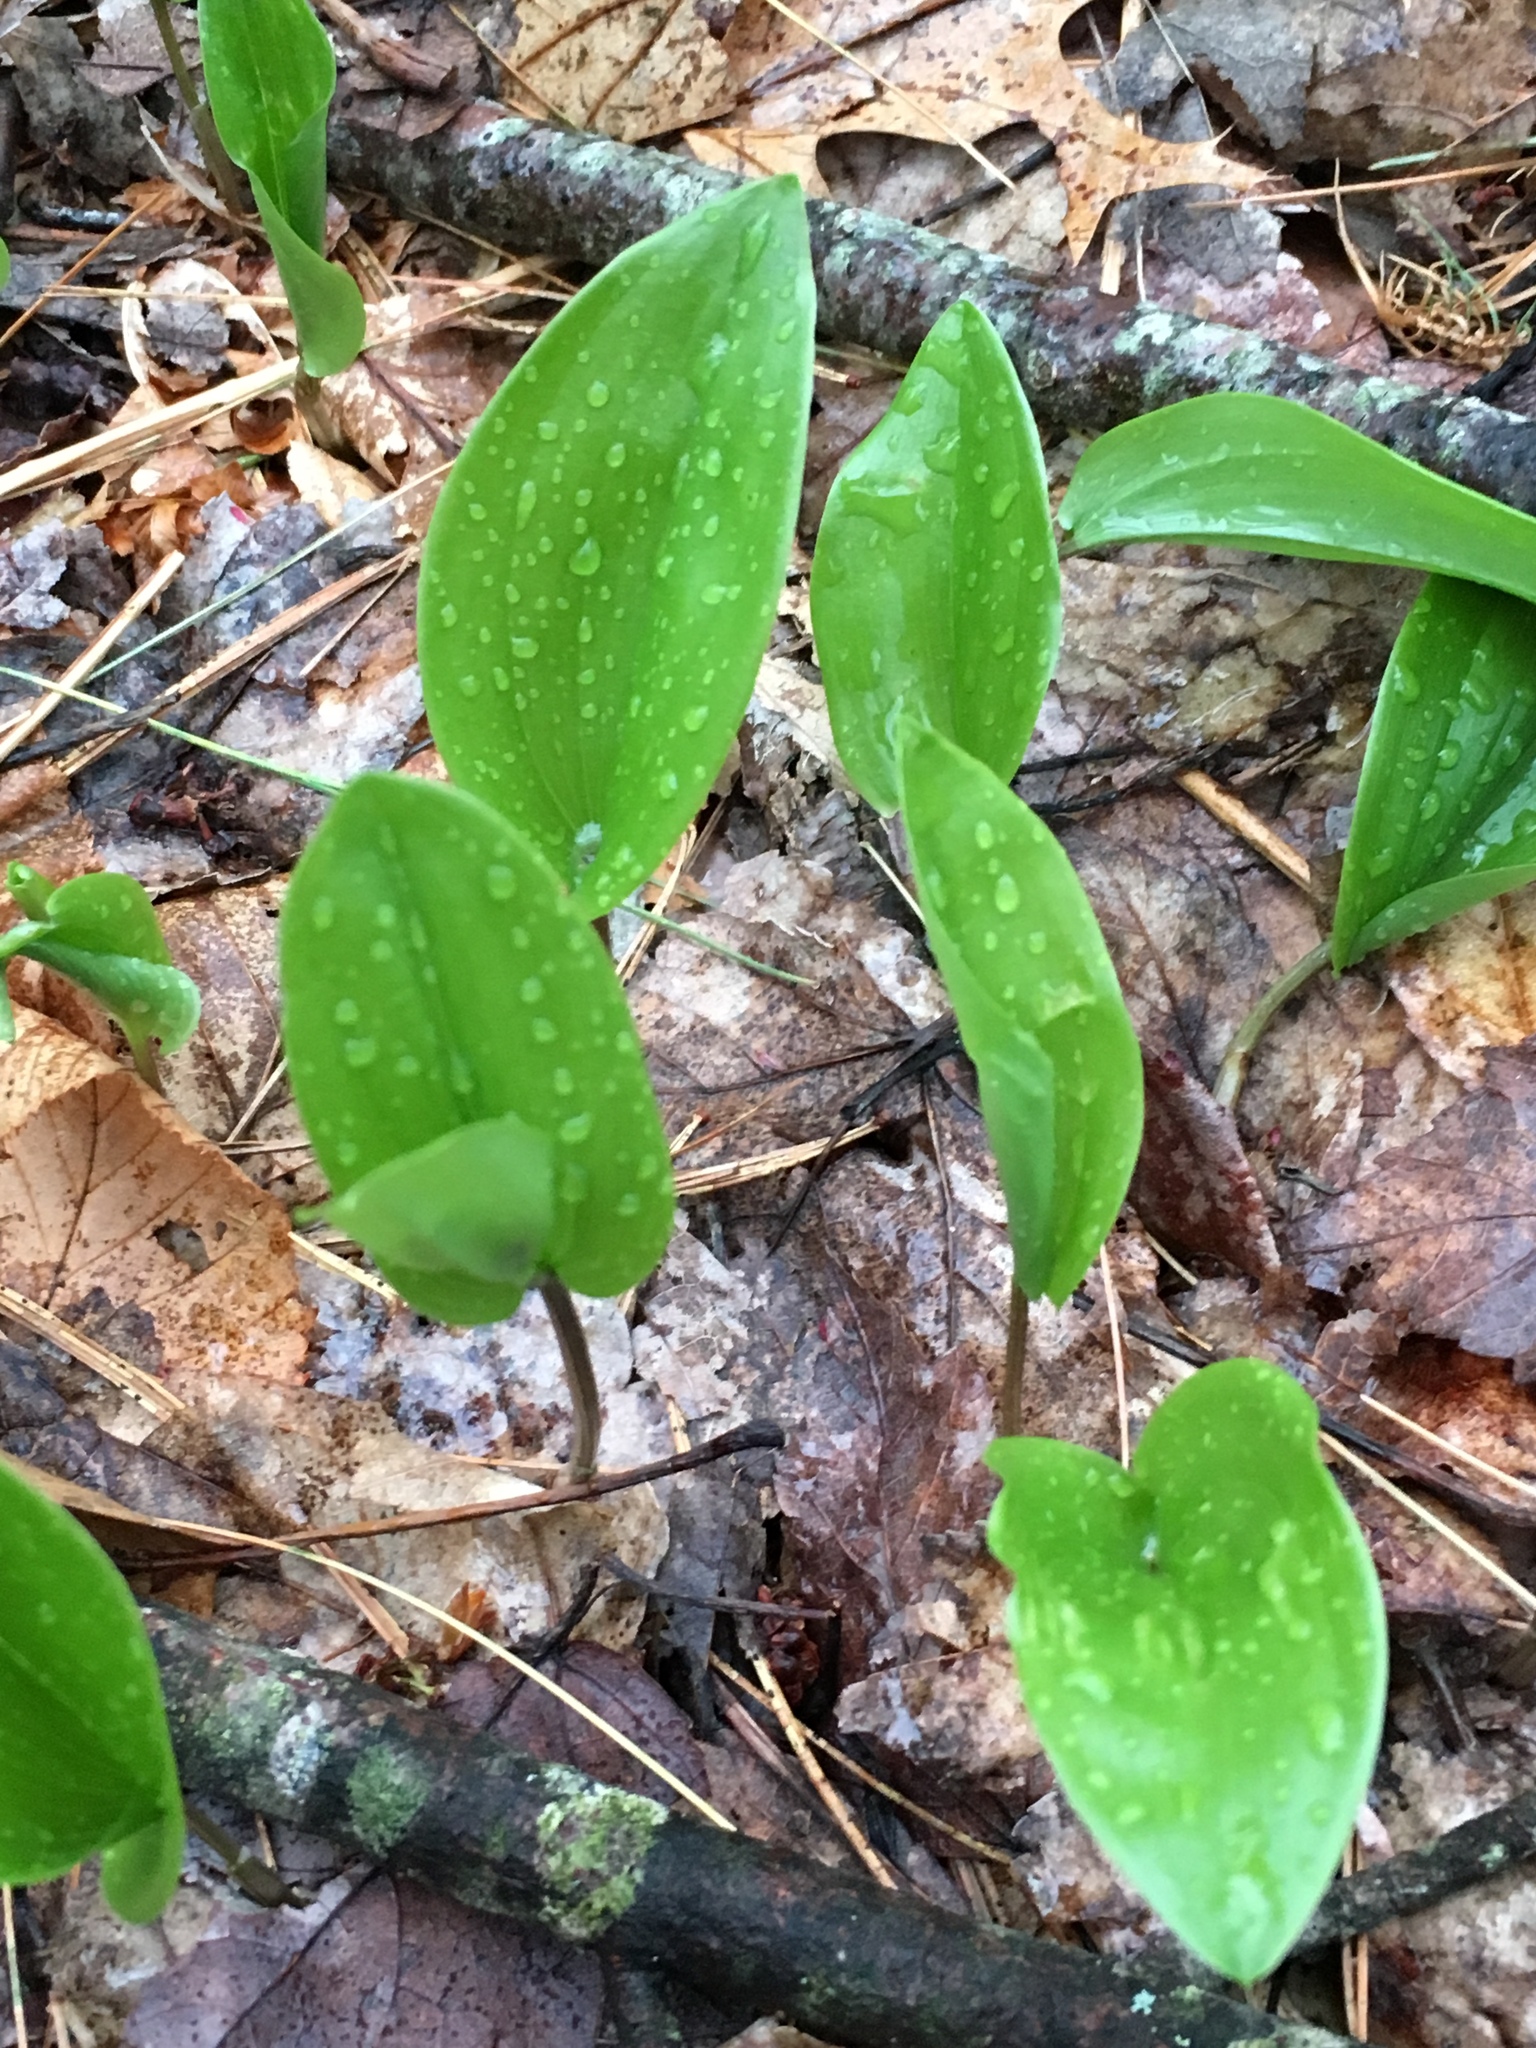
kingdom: Plantae
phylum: Tracheophyta
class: Liliopsida
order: Asparagales
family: Asparagaceae
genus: Maianthemum
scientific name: Maianthemum canadense
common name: False lily-of-the-valley
